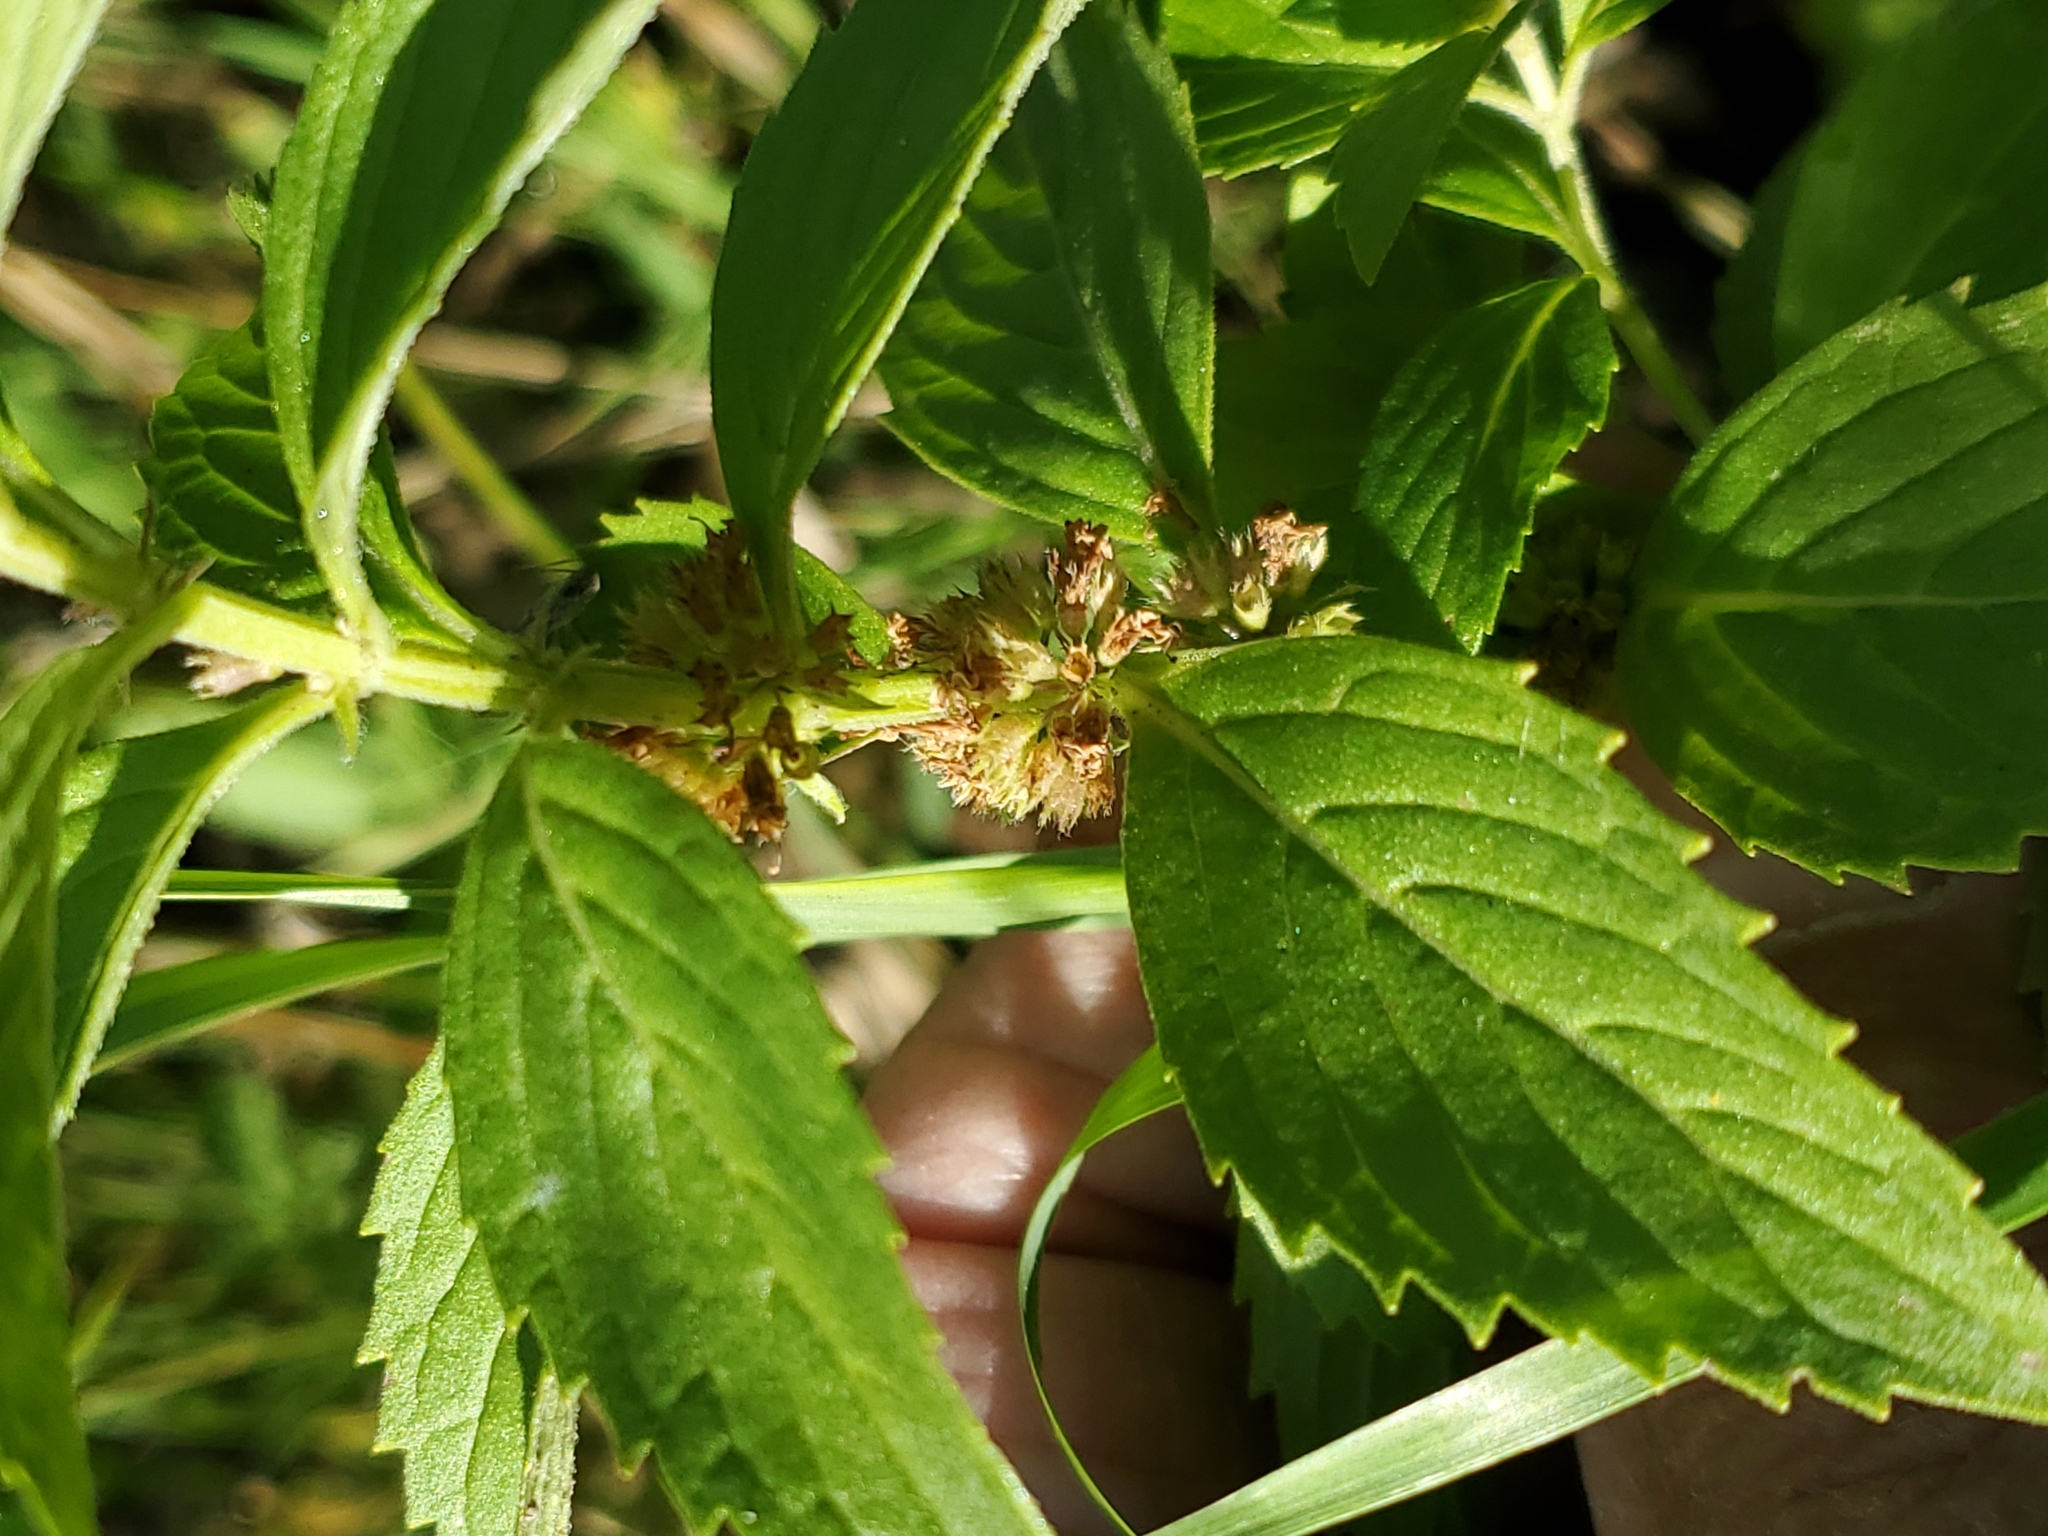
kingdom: Plantae
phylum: Tracheophyta
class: Magnoliopsida
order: Lamiales
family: Lamiaceae
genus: Mentha
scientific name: Mentha canadensis
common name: American corn mint
